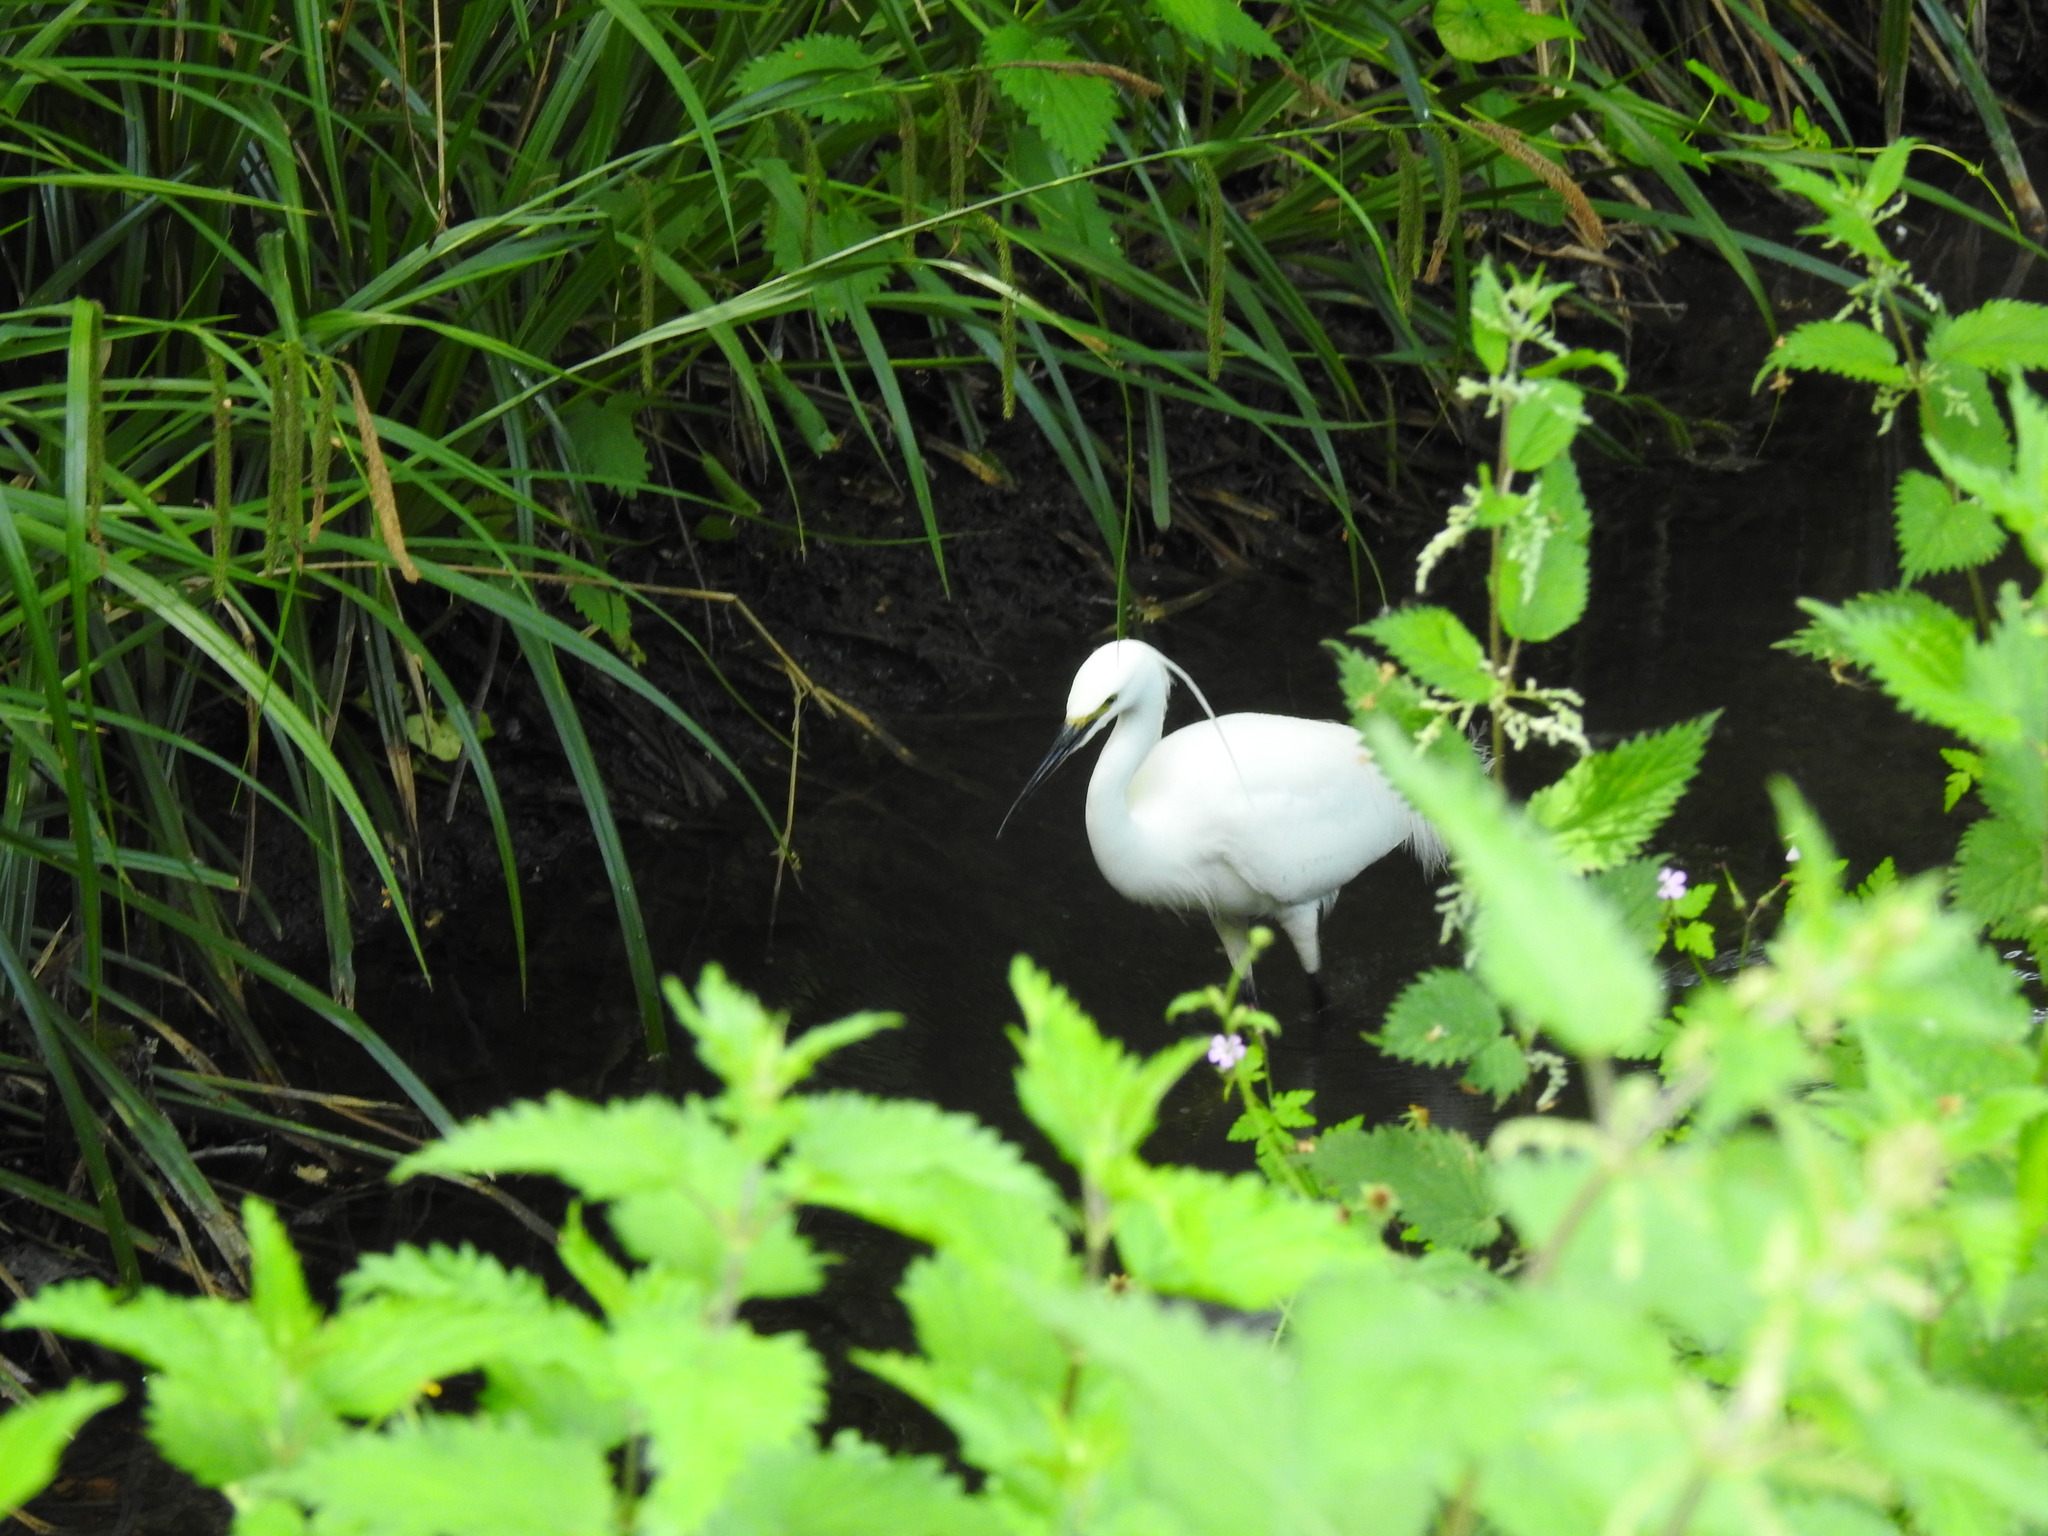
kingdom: Animalia
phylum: Chordata
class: Aves
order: Pelecaniformes
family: Ardeidae
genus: Egretta
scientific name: Egretta garzetta
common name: Little egret
